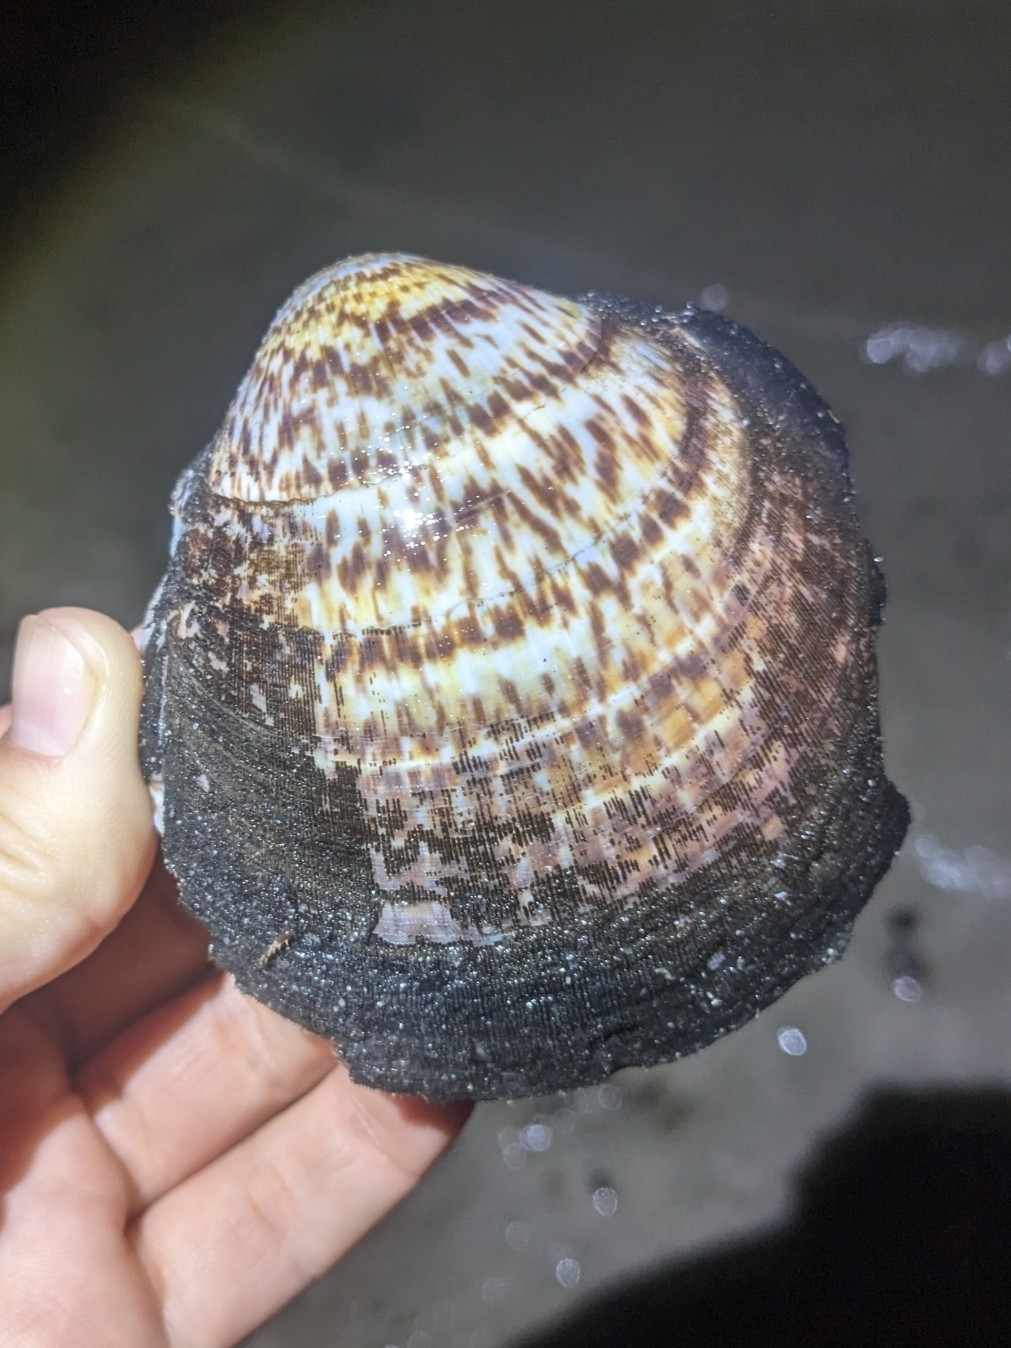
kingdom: Animalia
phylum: Mollusca
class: Bivalvia
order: Arcida
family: Glycymerididae
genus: Glycymeris
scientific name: Glycymeris gigantea
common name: American bittersweet
